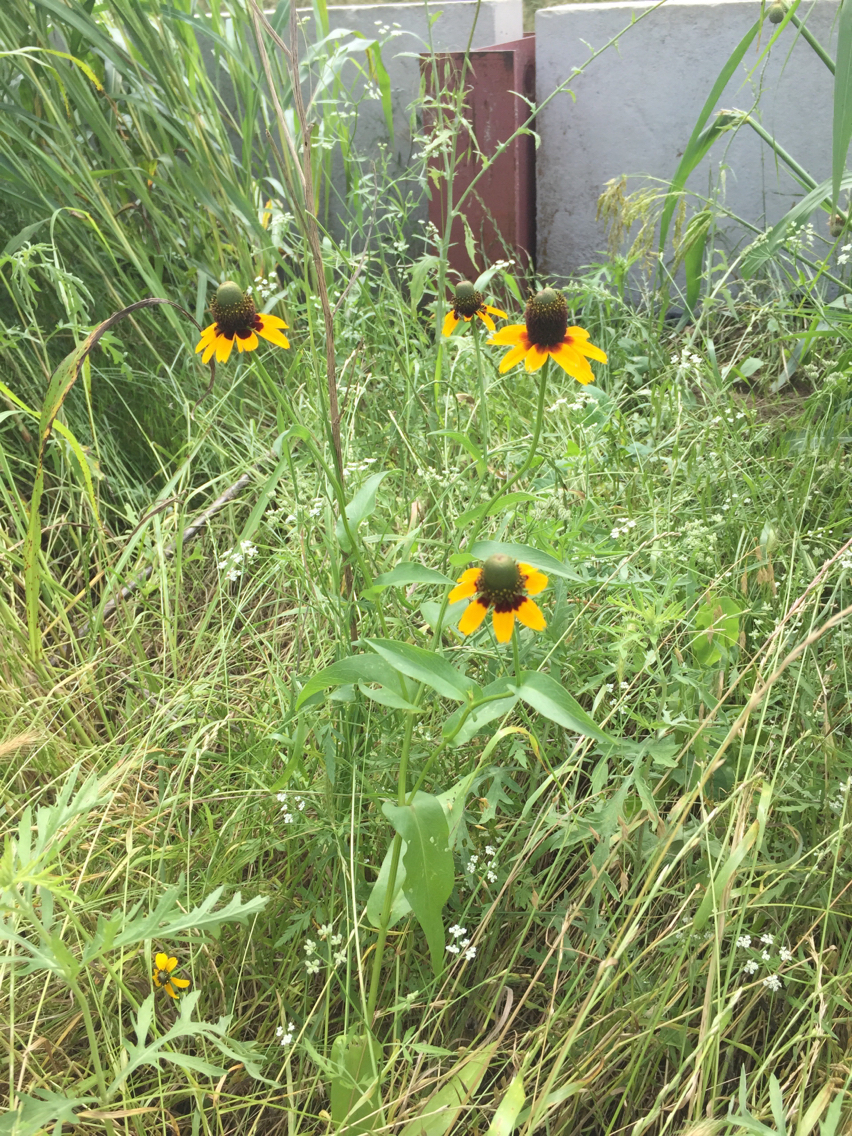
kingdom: Plantae
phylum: Tracheophyta
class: Magnoliopsida
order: Asterales
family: Asteraceae
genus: Rudbeckia
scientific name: Rudbeckia amplexicaulis
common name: Clasping-leaf coneflower
